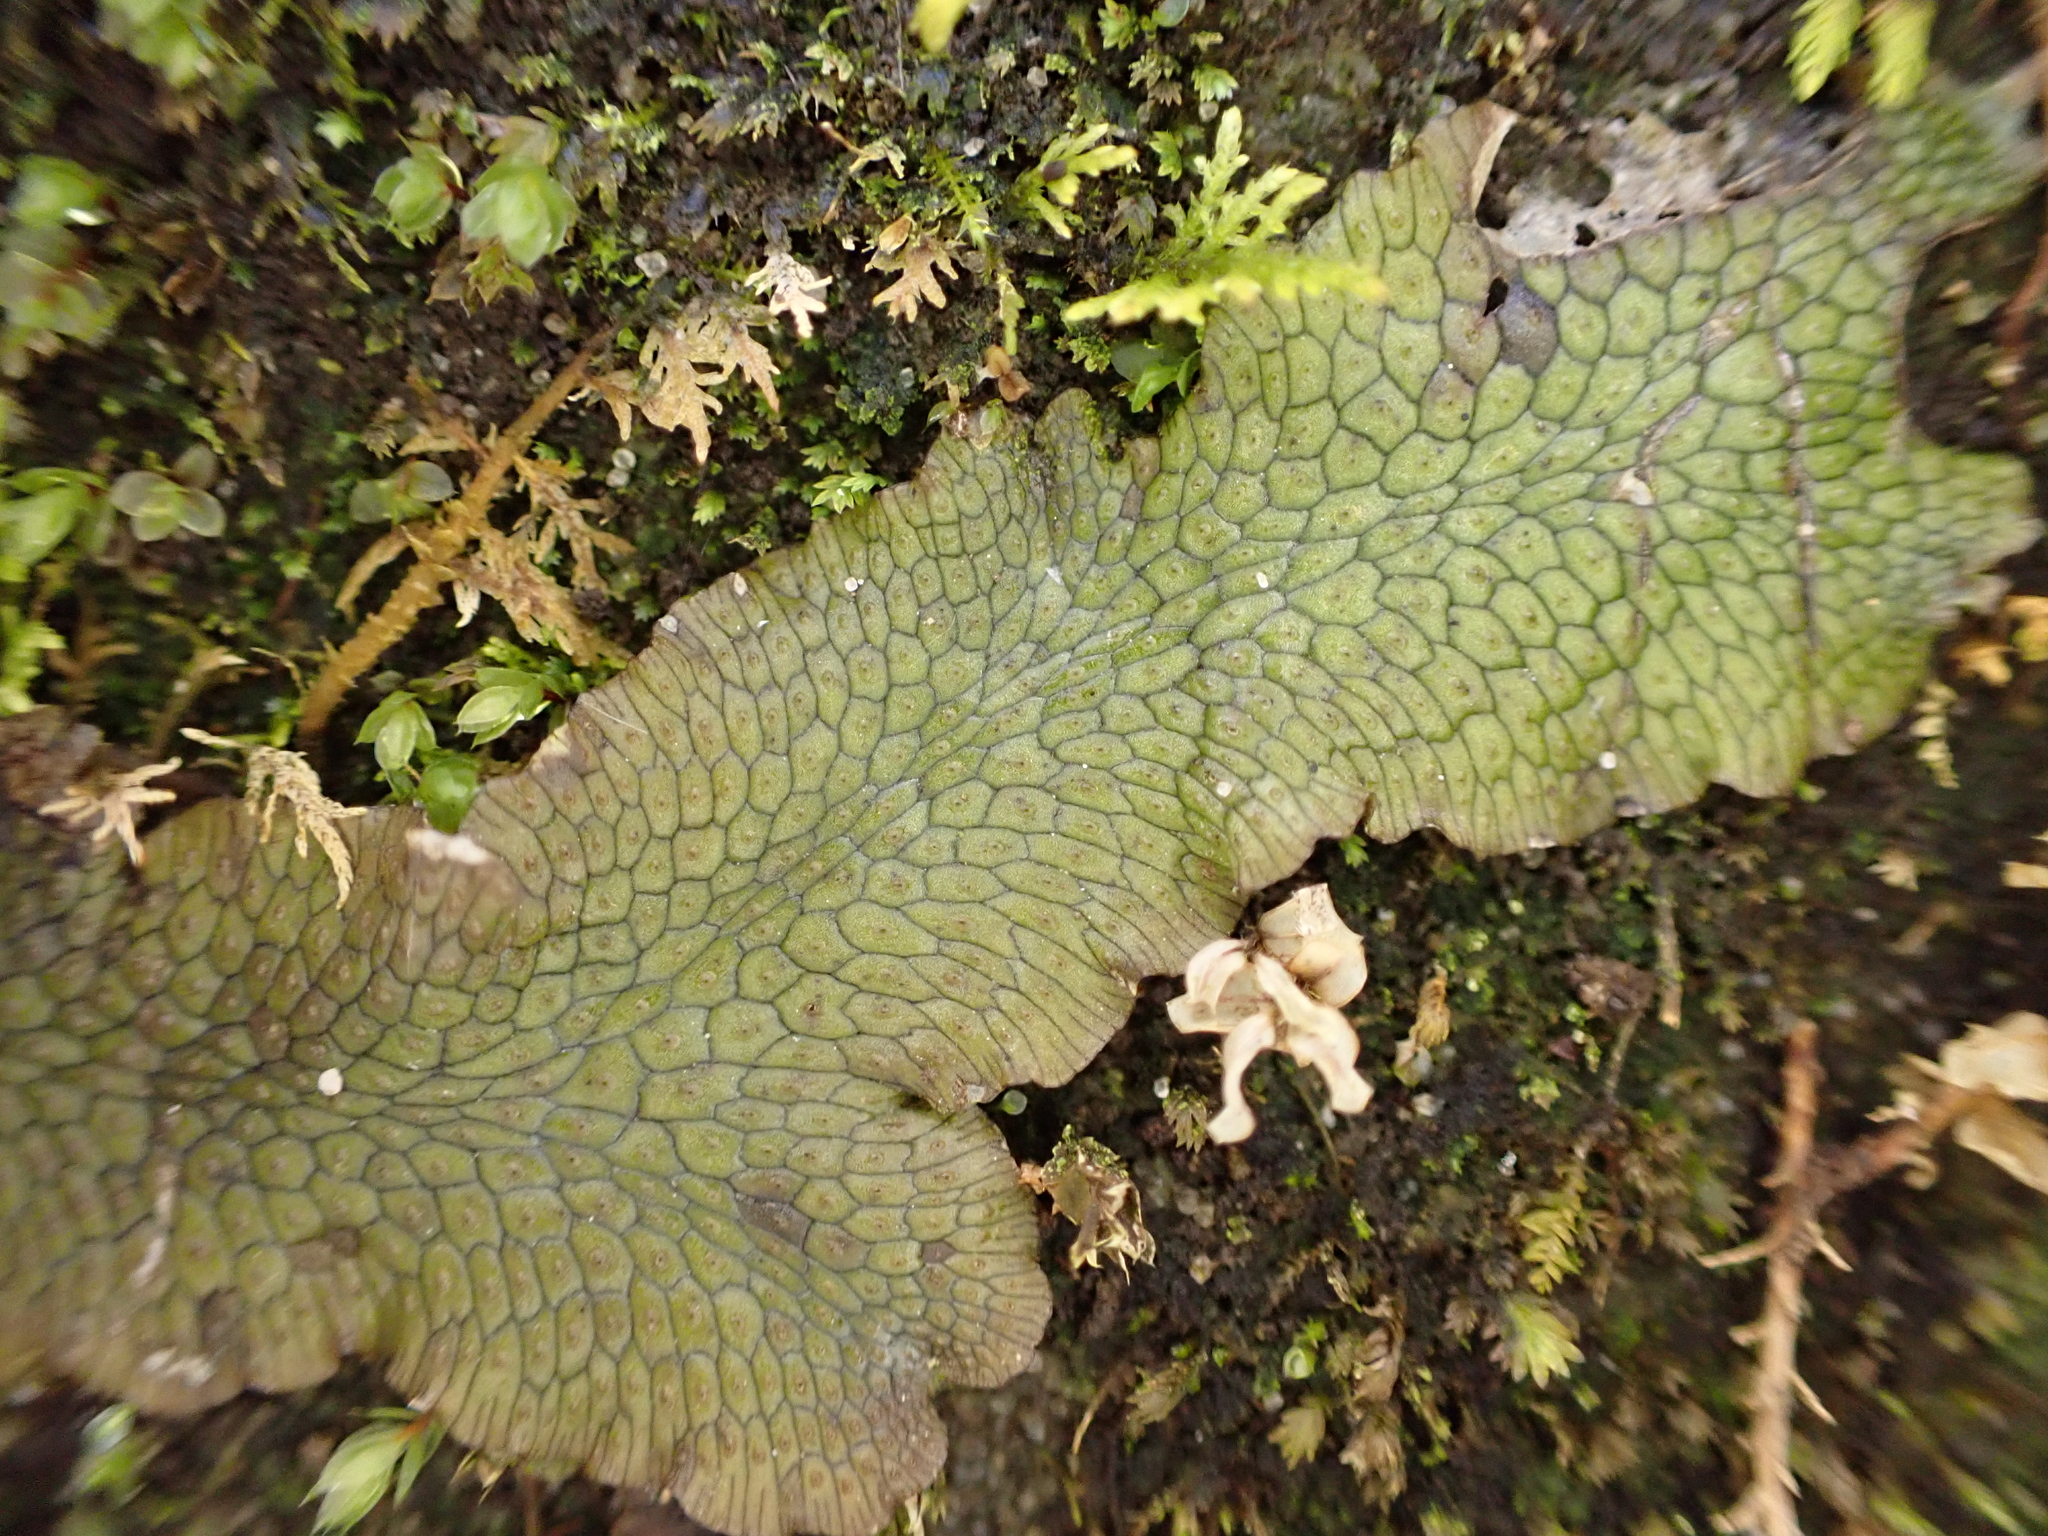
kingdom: Plantae
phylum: Marchantiophyta
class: Marchantiopsida
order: Marchantiales
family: Conocephalaceae
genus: Conocephalum
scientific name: Conocephalum salebrosum
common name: Cat-tongue liverwort
